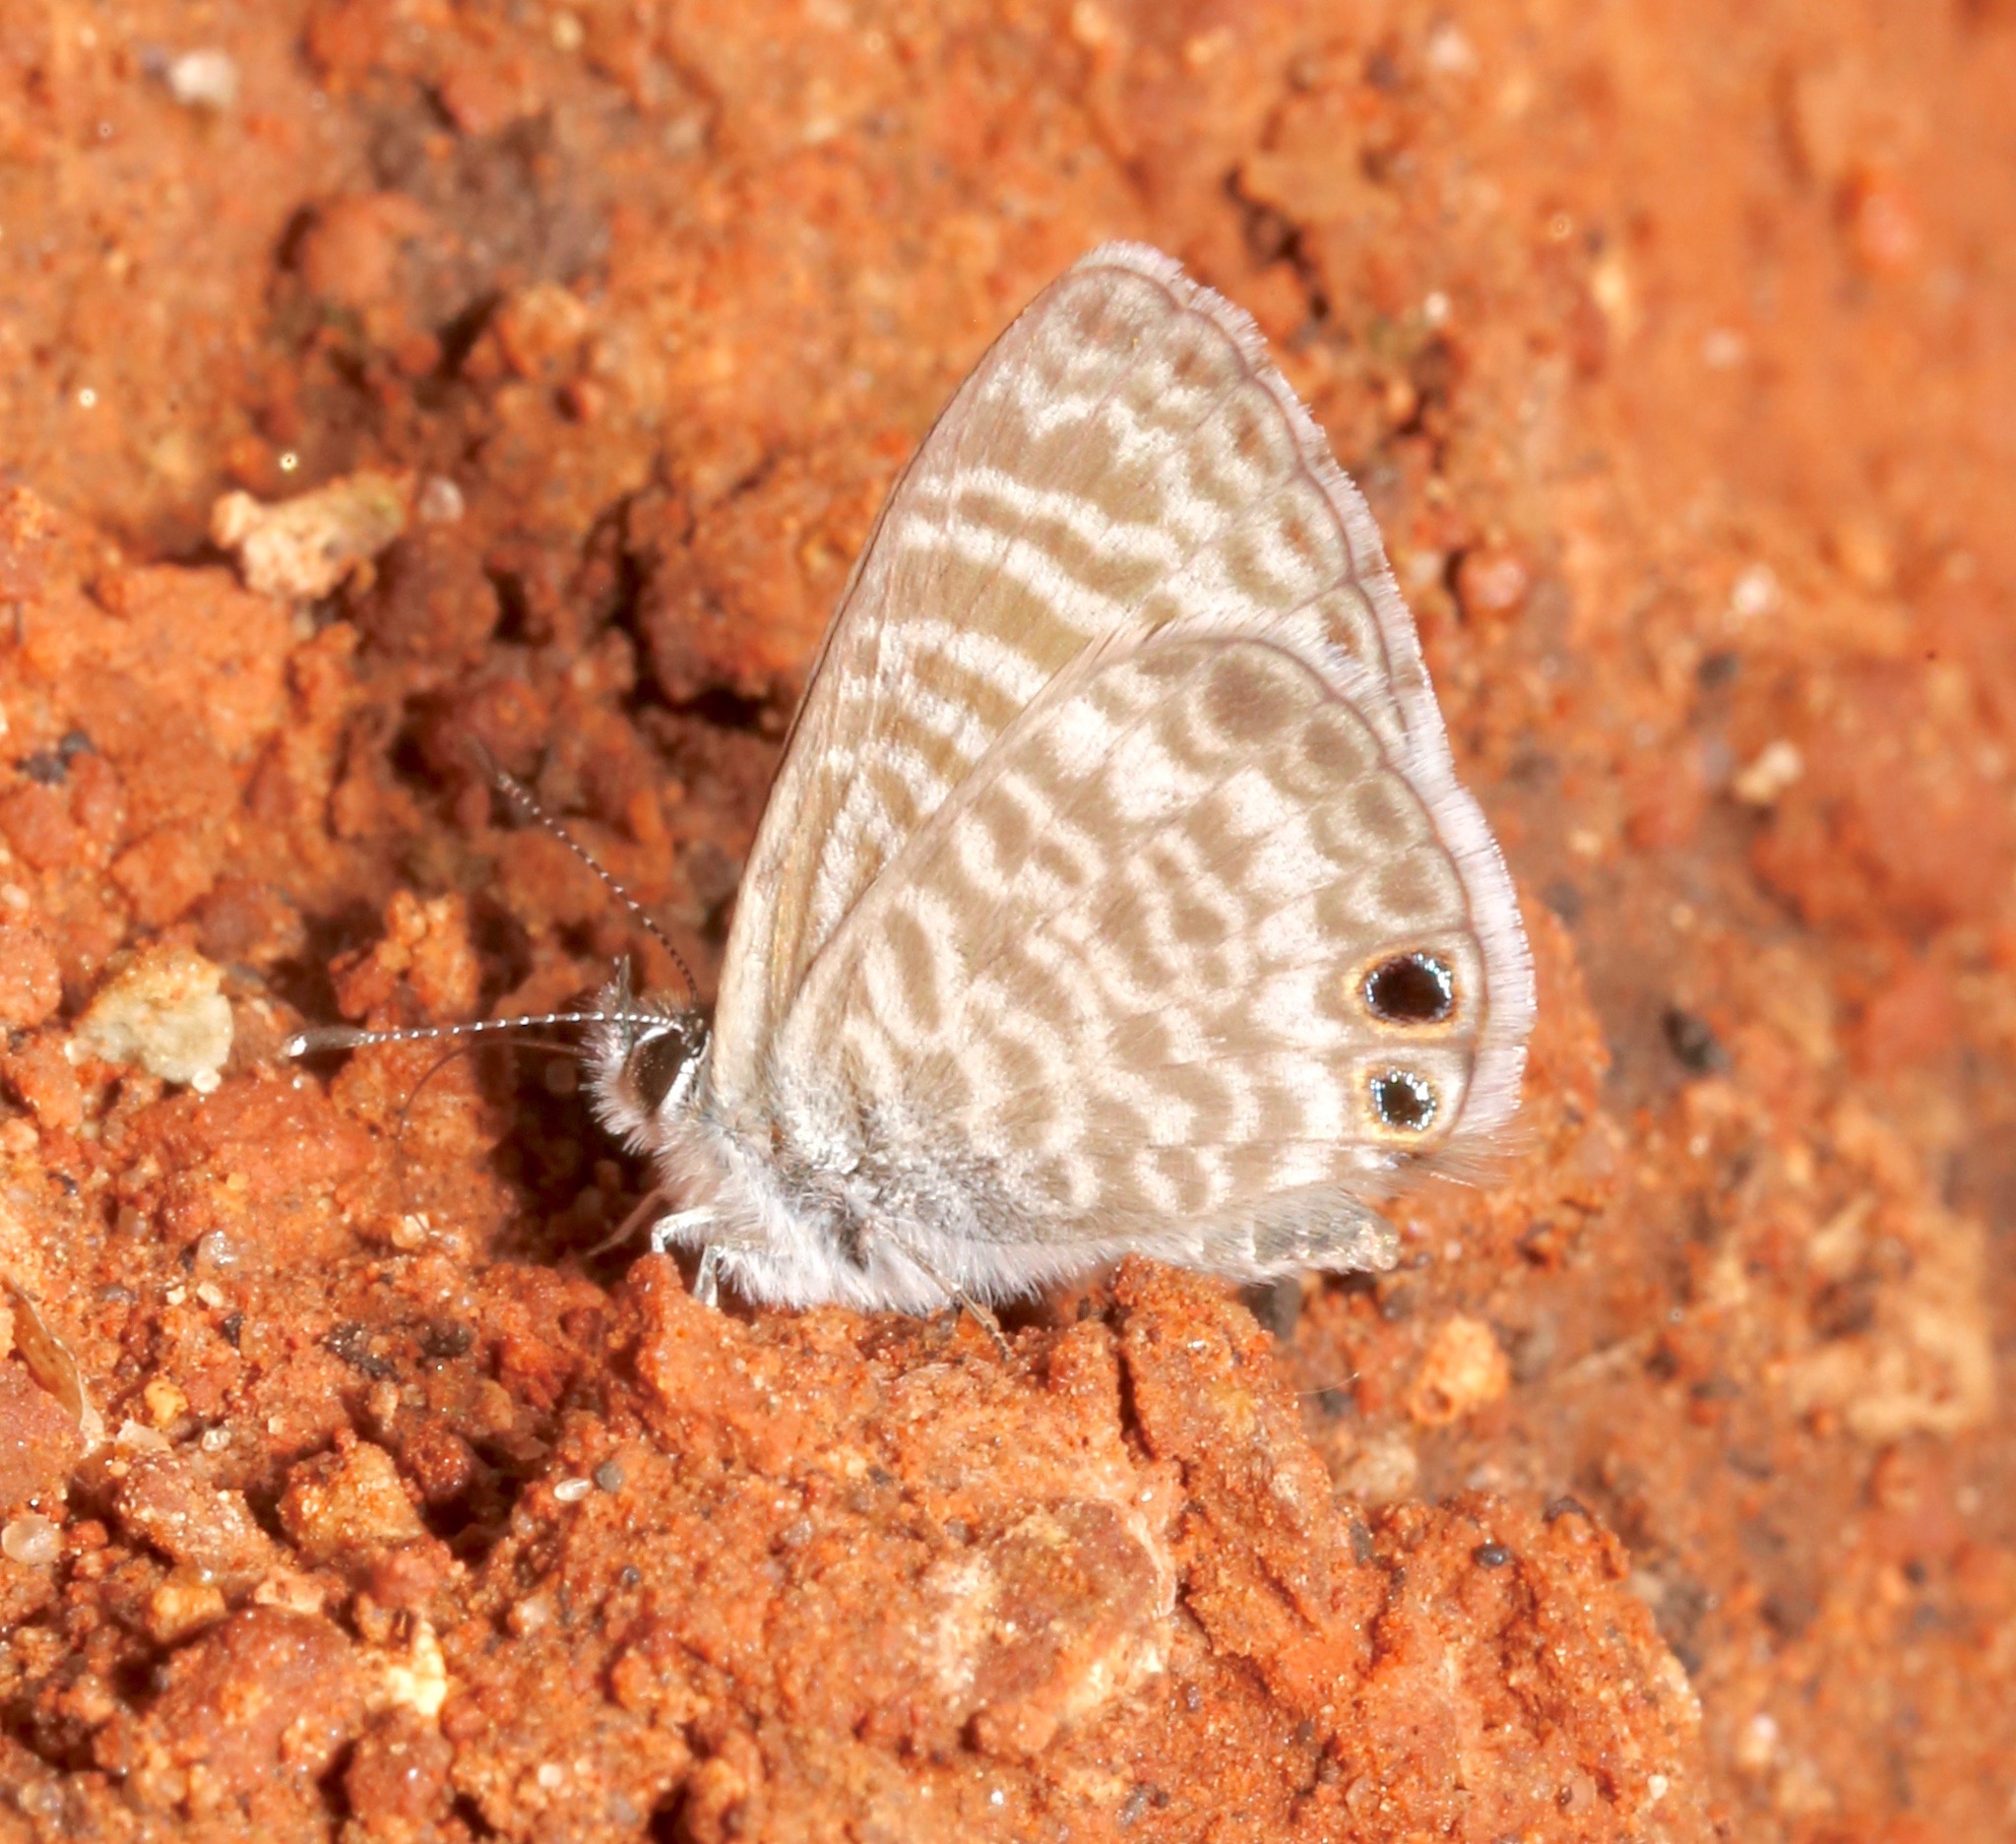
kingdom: Animalia
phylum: Arthropoda
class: Insecta
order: Lepidoptera
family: Lycaenidae
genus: Leptotes
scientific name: Leptotes marina
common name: Marine blue
